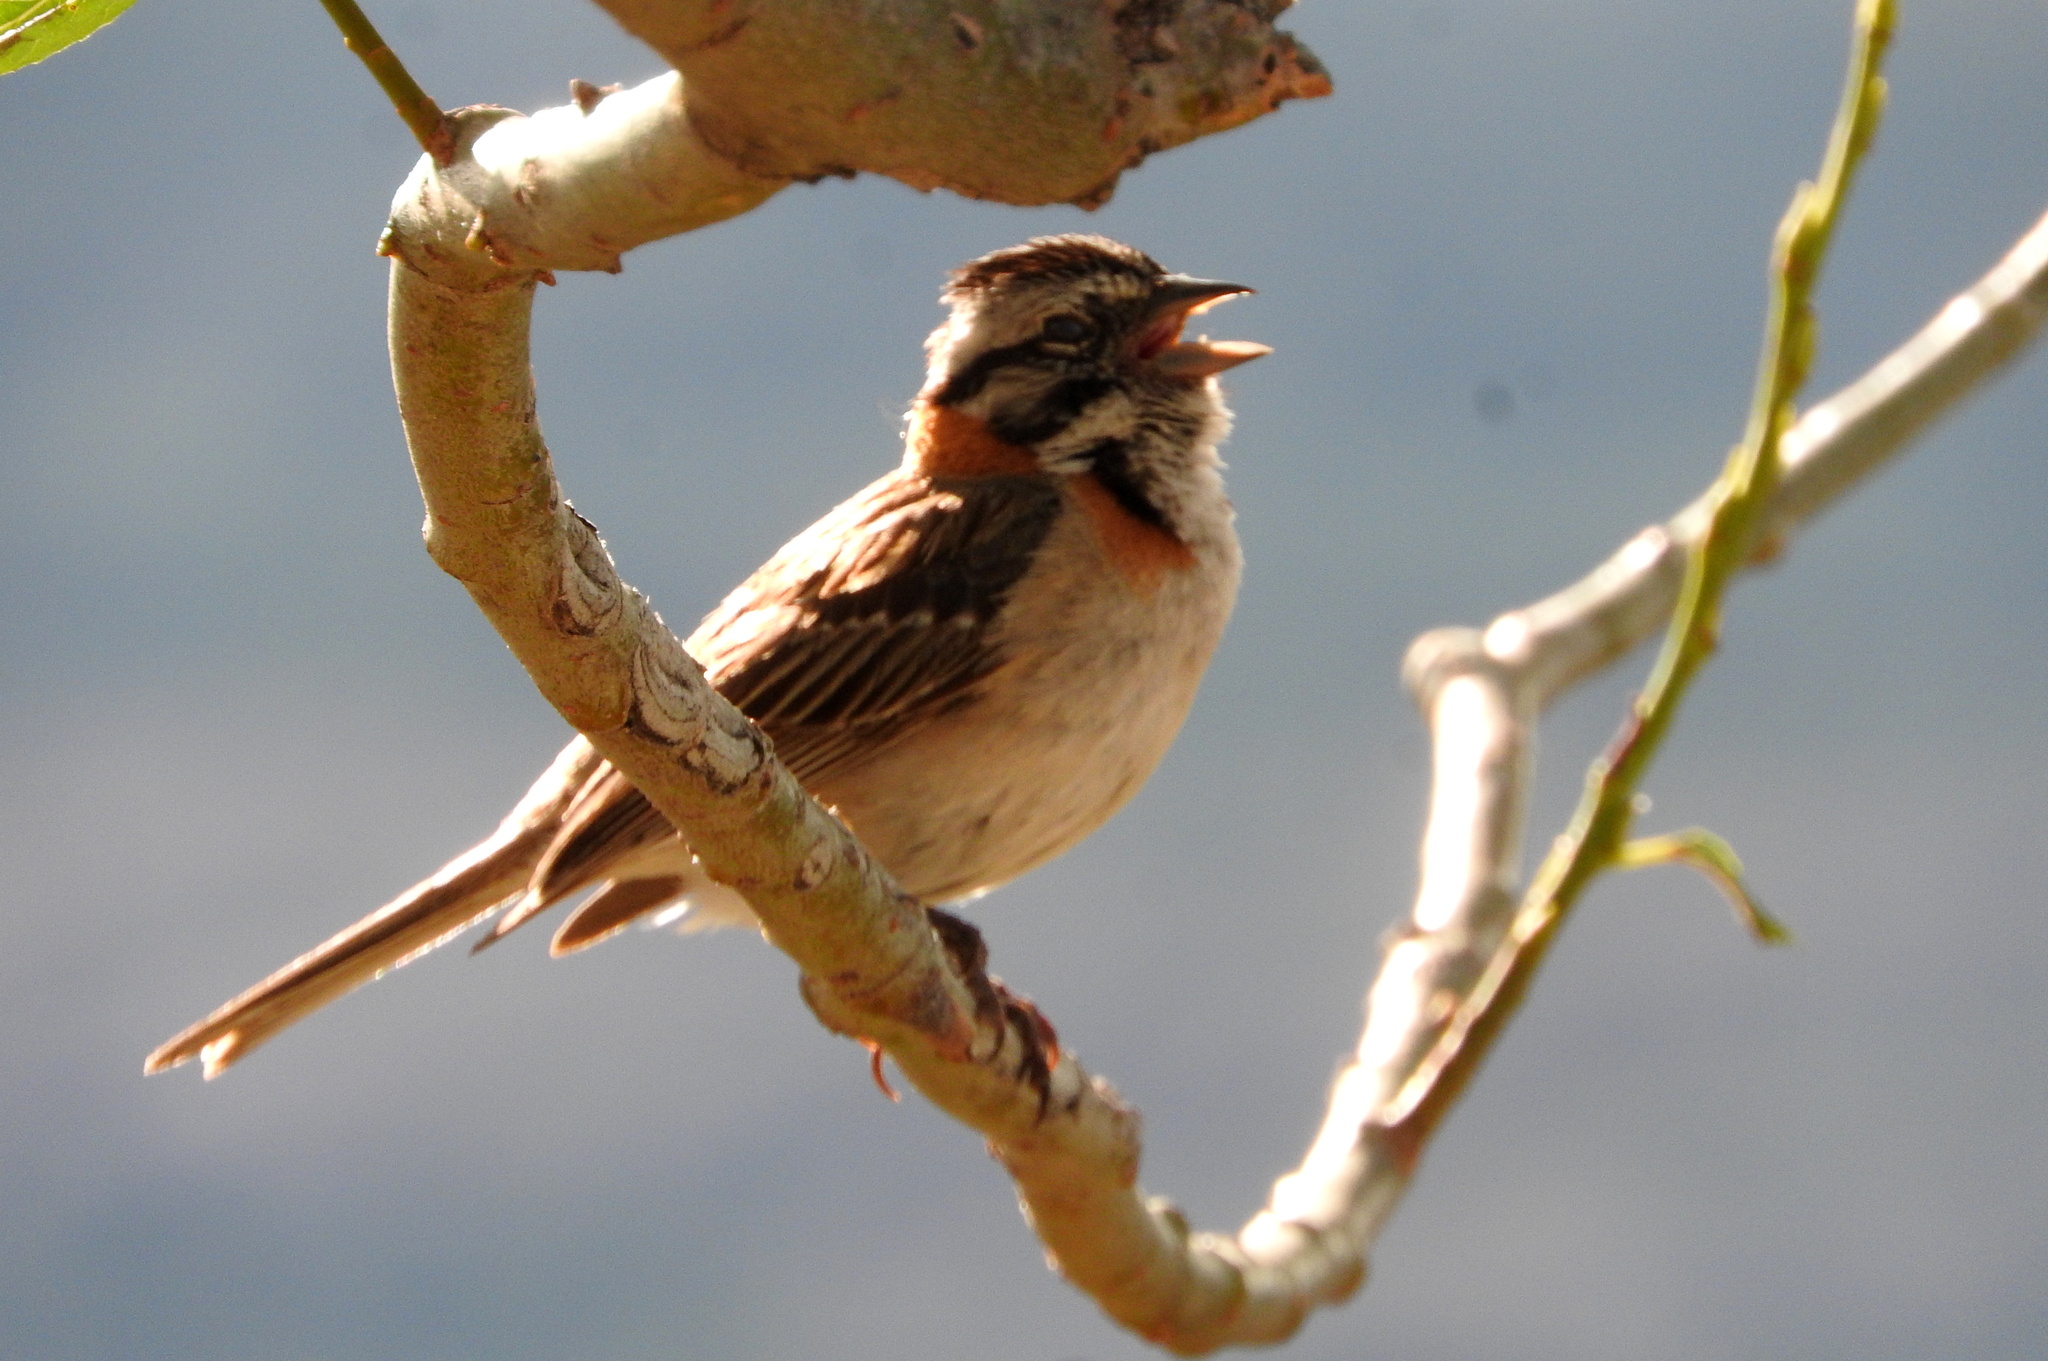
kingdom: Animalia
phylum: Chordata
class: Aves
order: Passeriformes
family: Passerellidae
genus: Zonotrichia
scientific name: Zonotrichia capensis
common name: Rufous-collared sparrow
